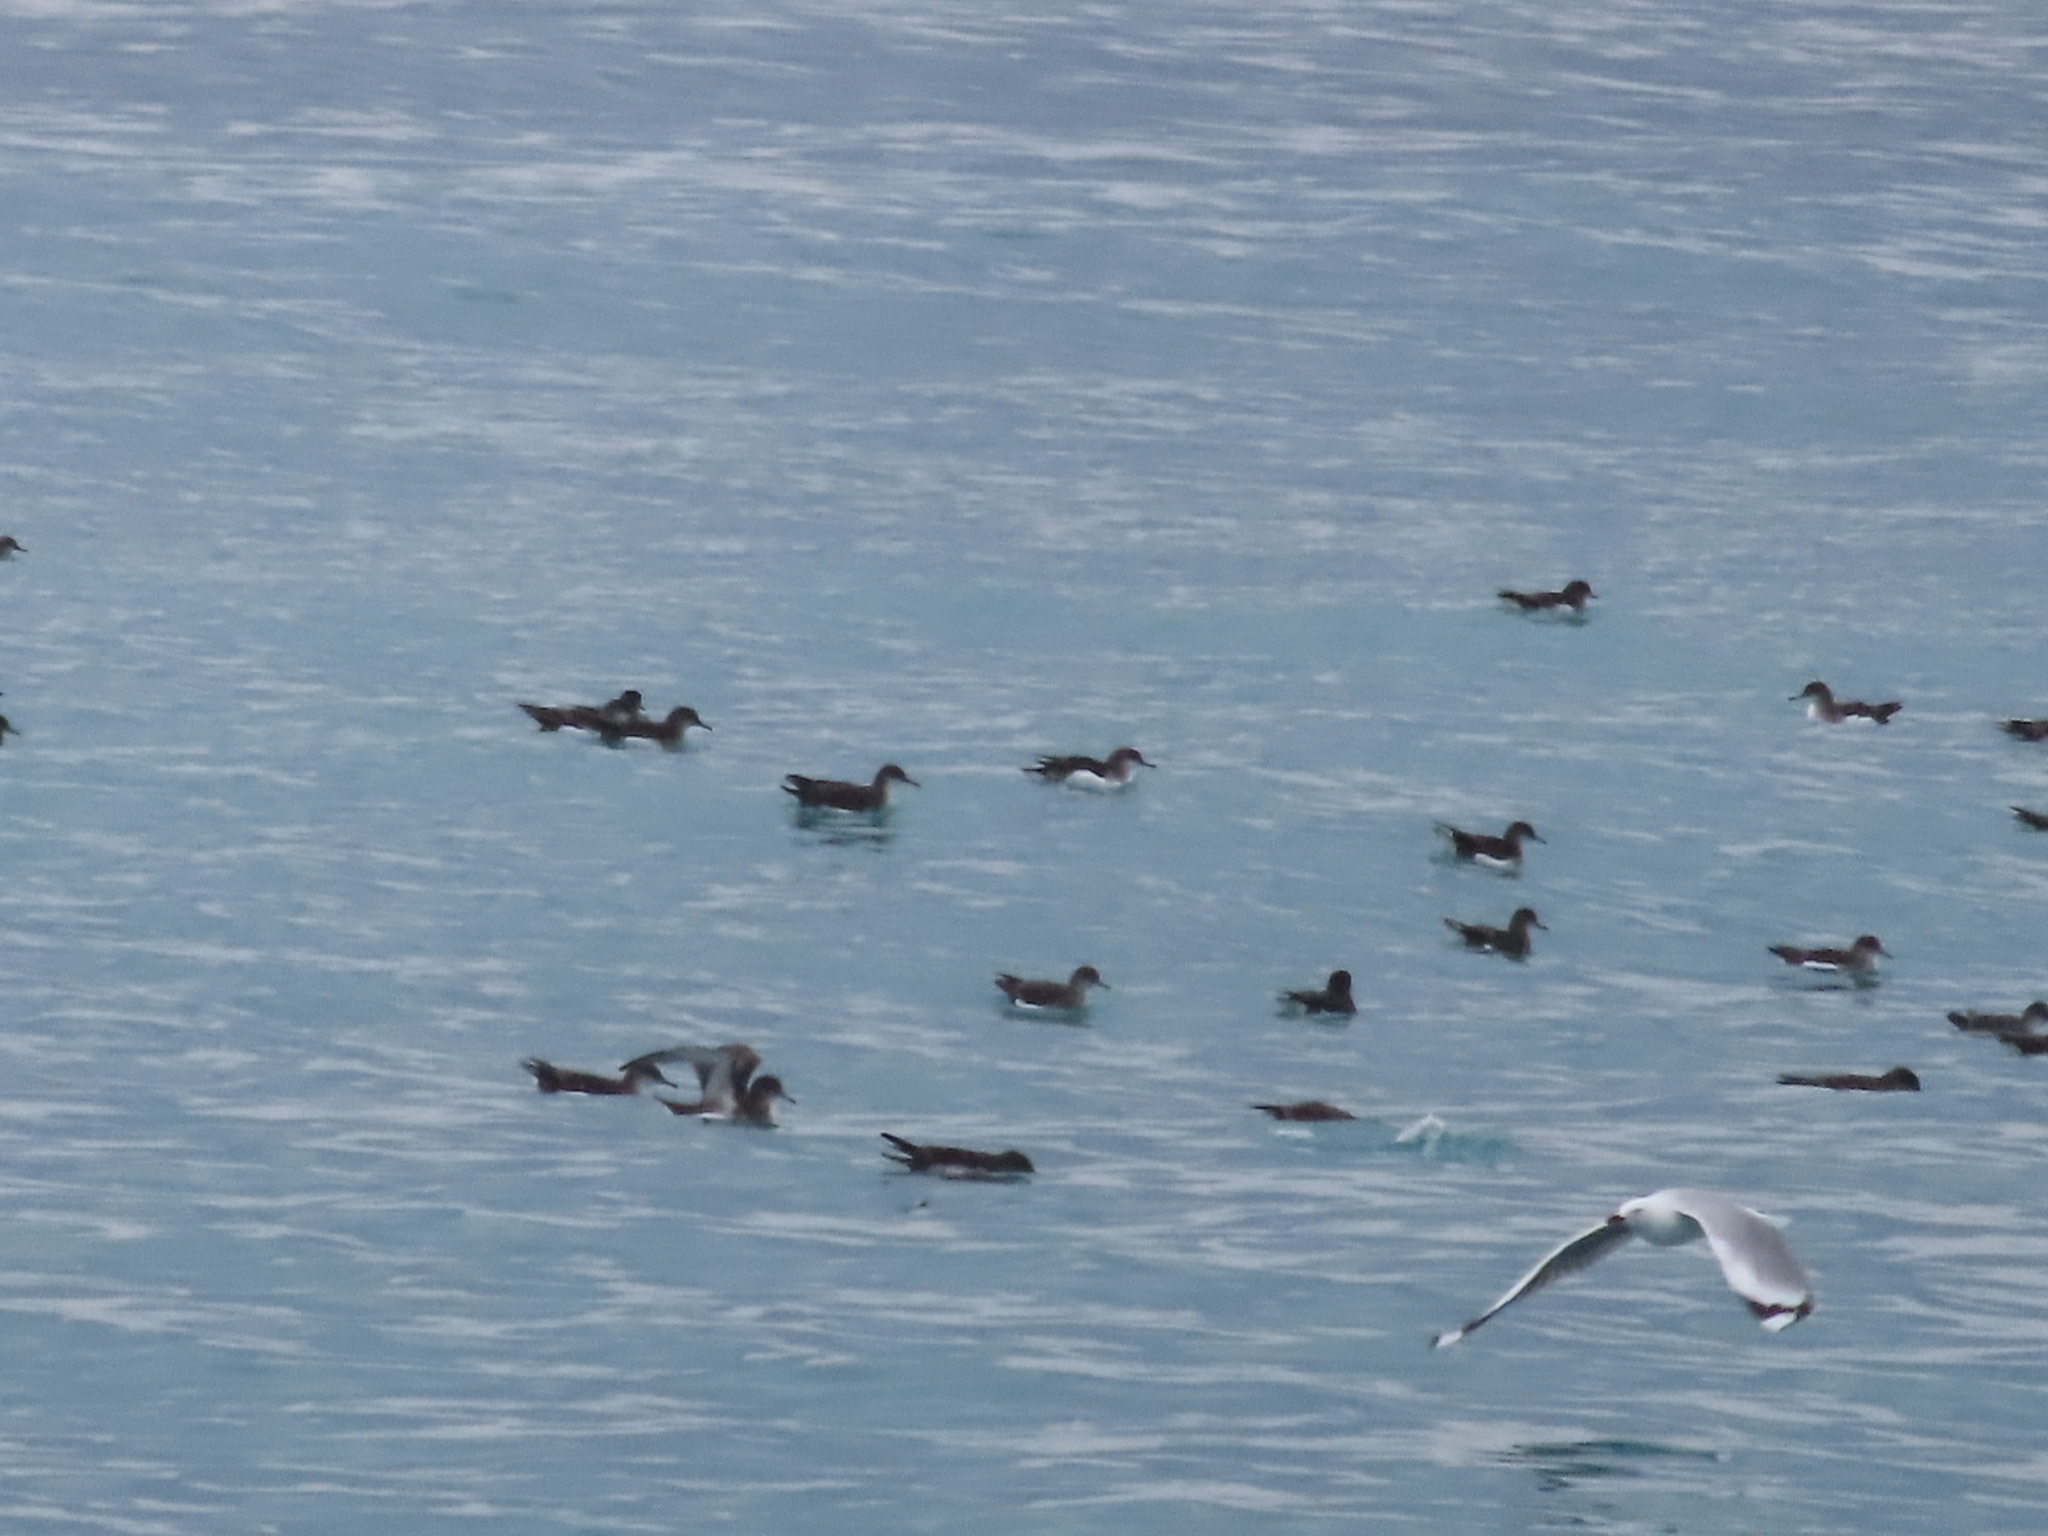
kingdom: Animalia
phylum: Chordata
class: Aves
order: Procellariiformes
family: Procellariidae
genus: Puffinus
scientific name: Puffinus huttoni
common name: Hutton's shearwater
